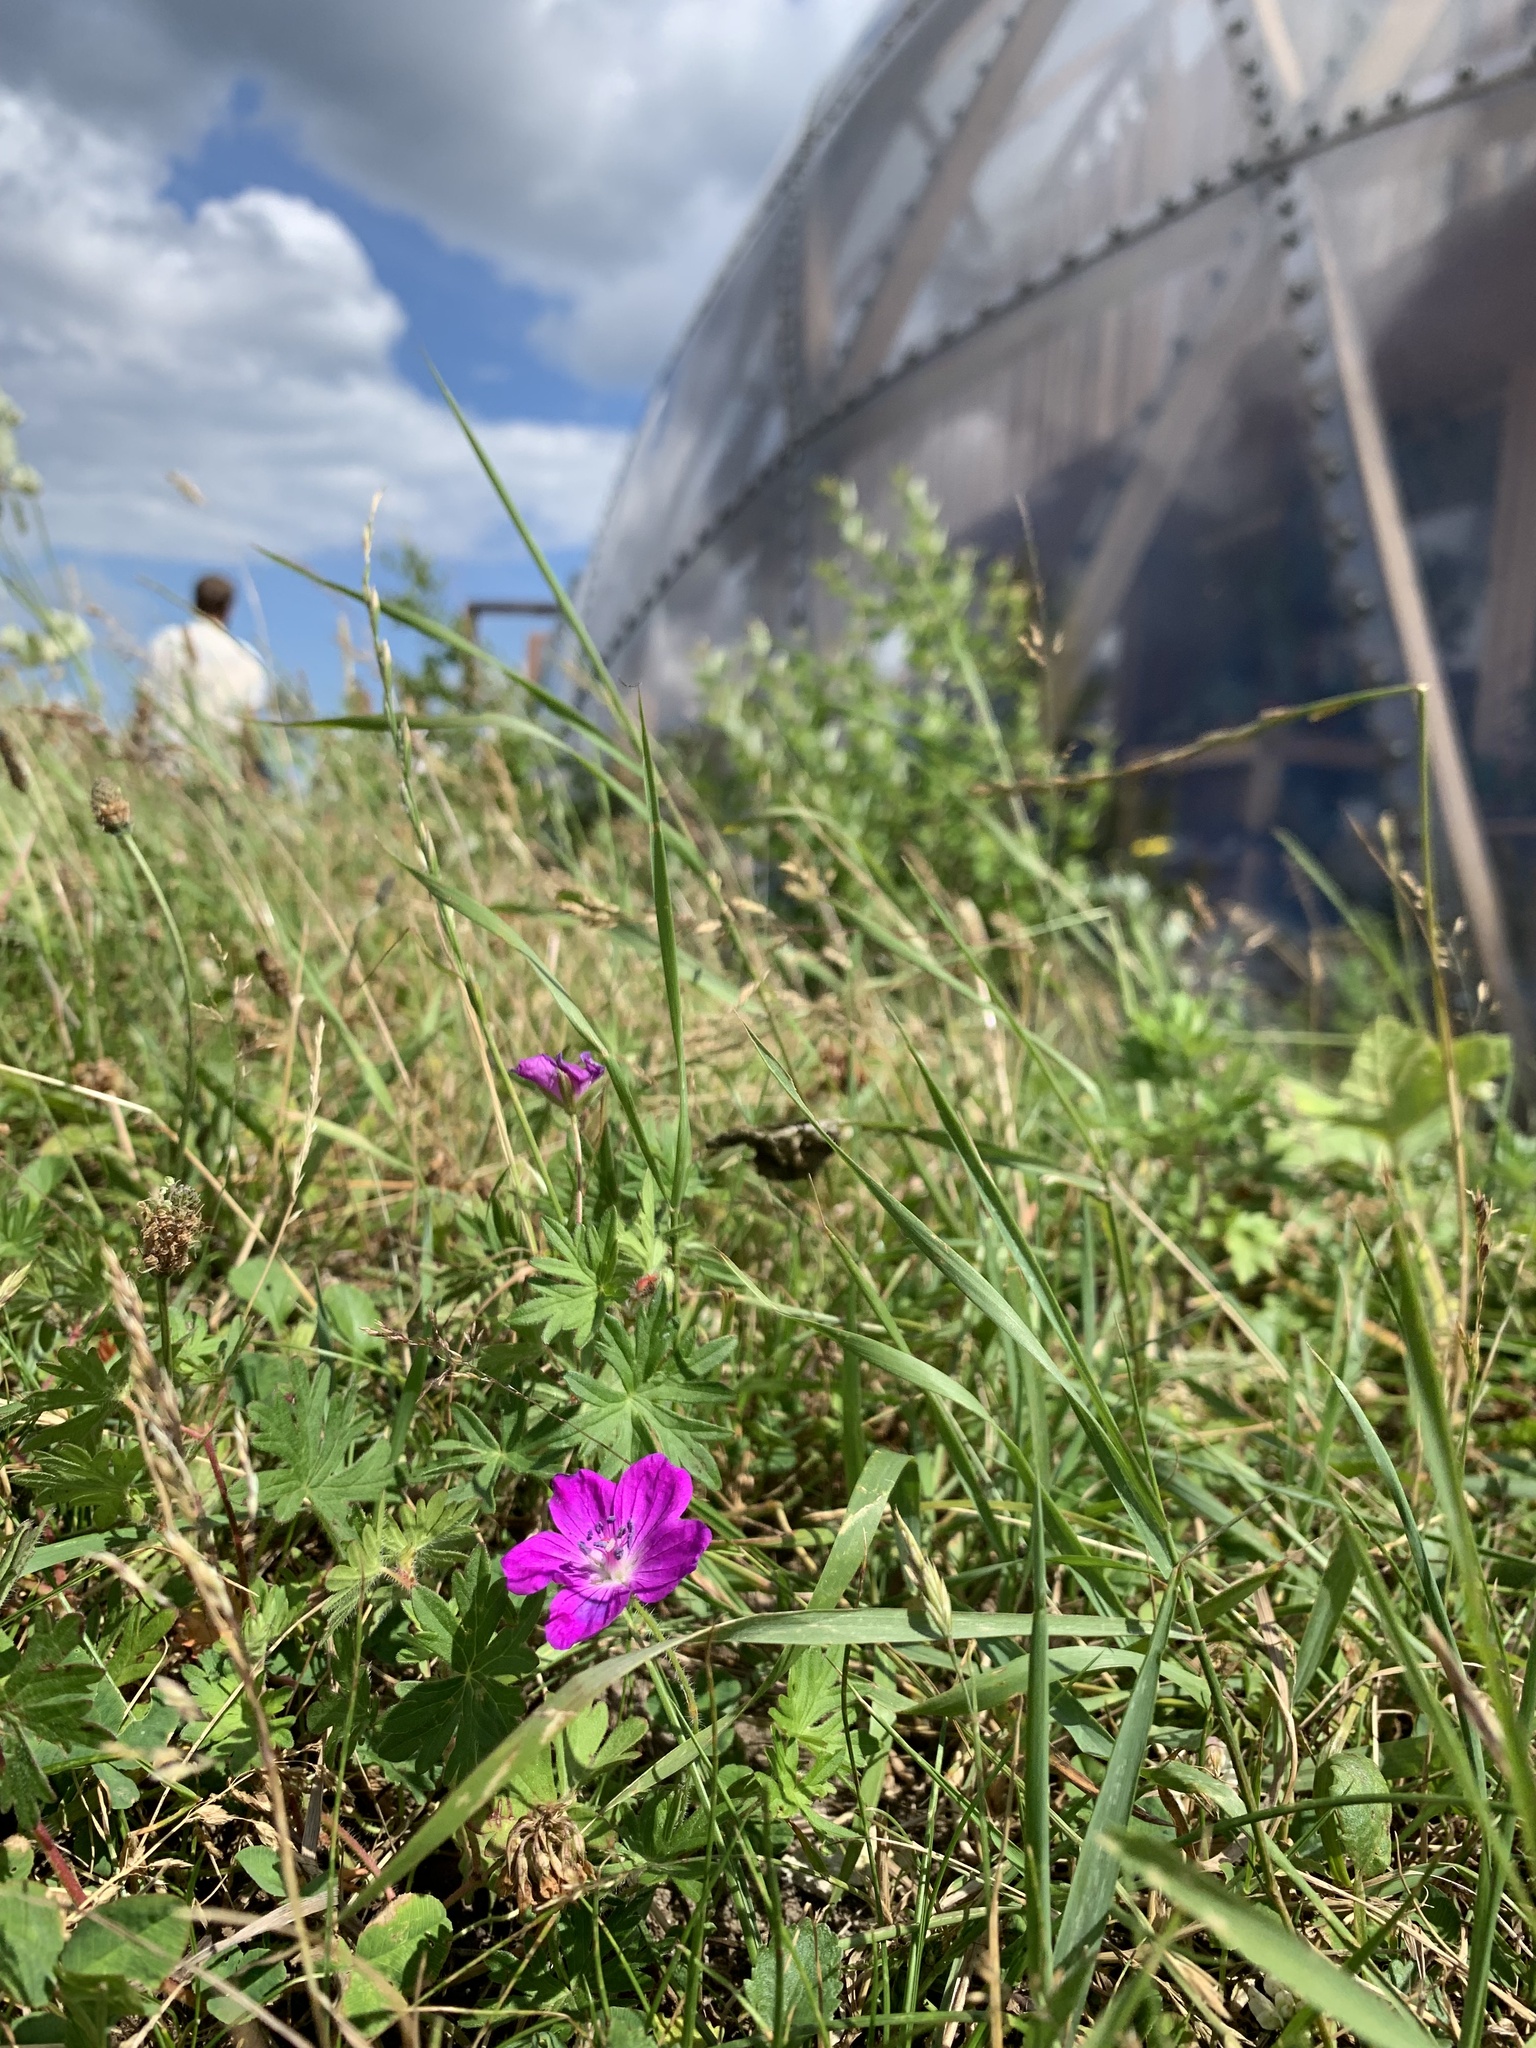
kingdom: Plantae
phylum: Tracheophyta
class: Magnoliopsida
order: Geraniales
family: Geraniaceae
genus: Geranium
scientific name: Geranium sanguineum
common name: Bloody crane's-bill
